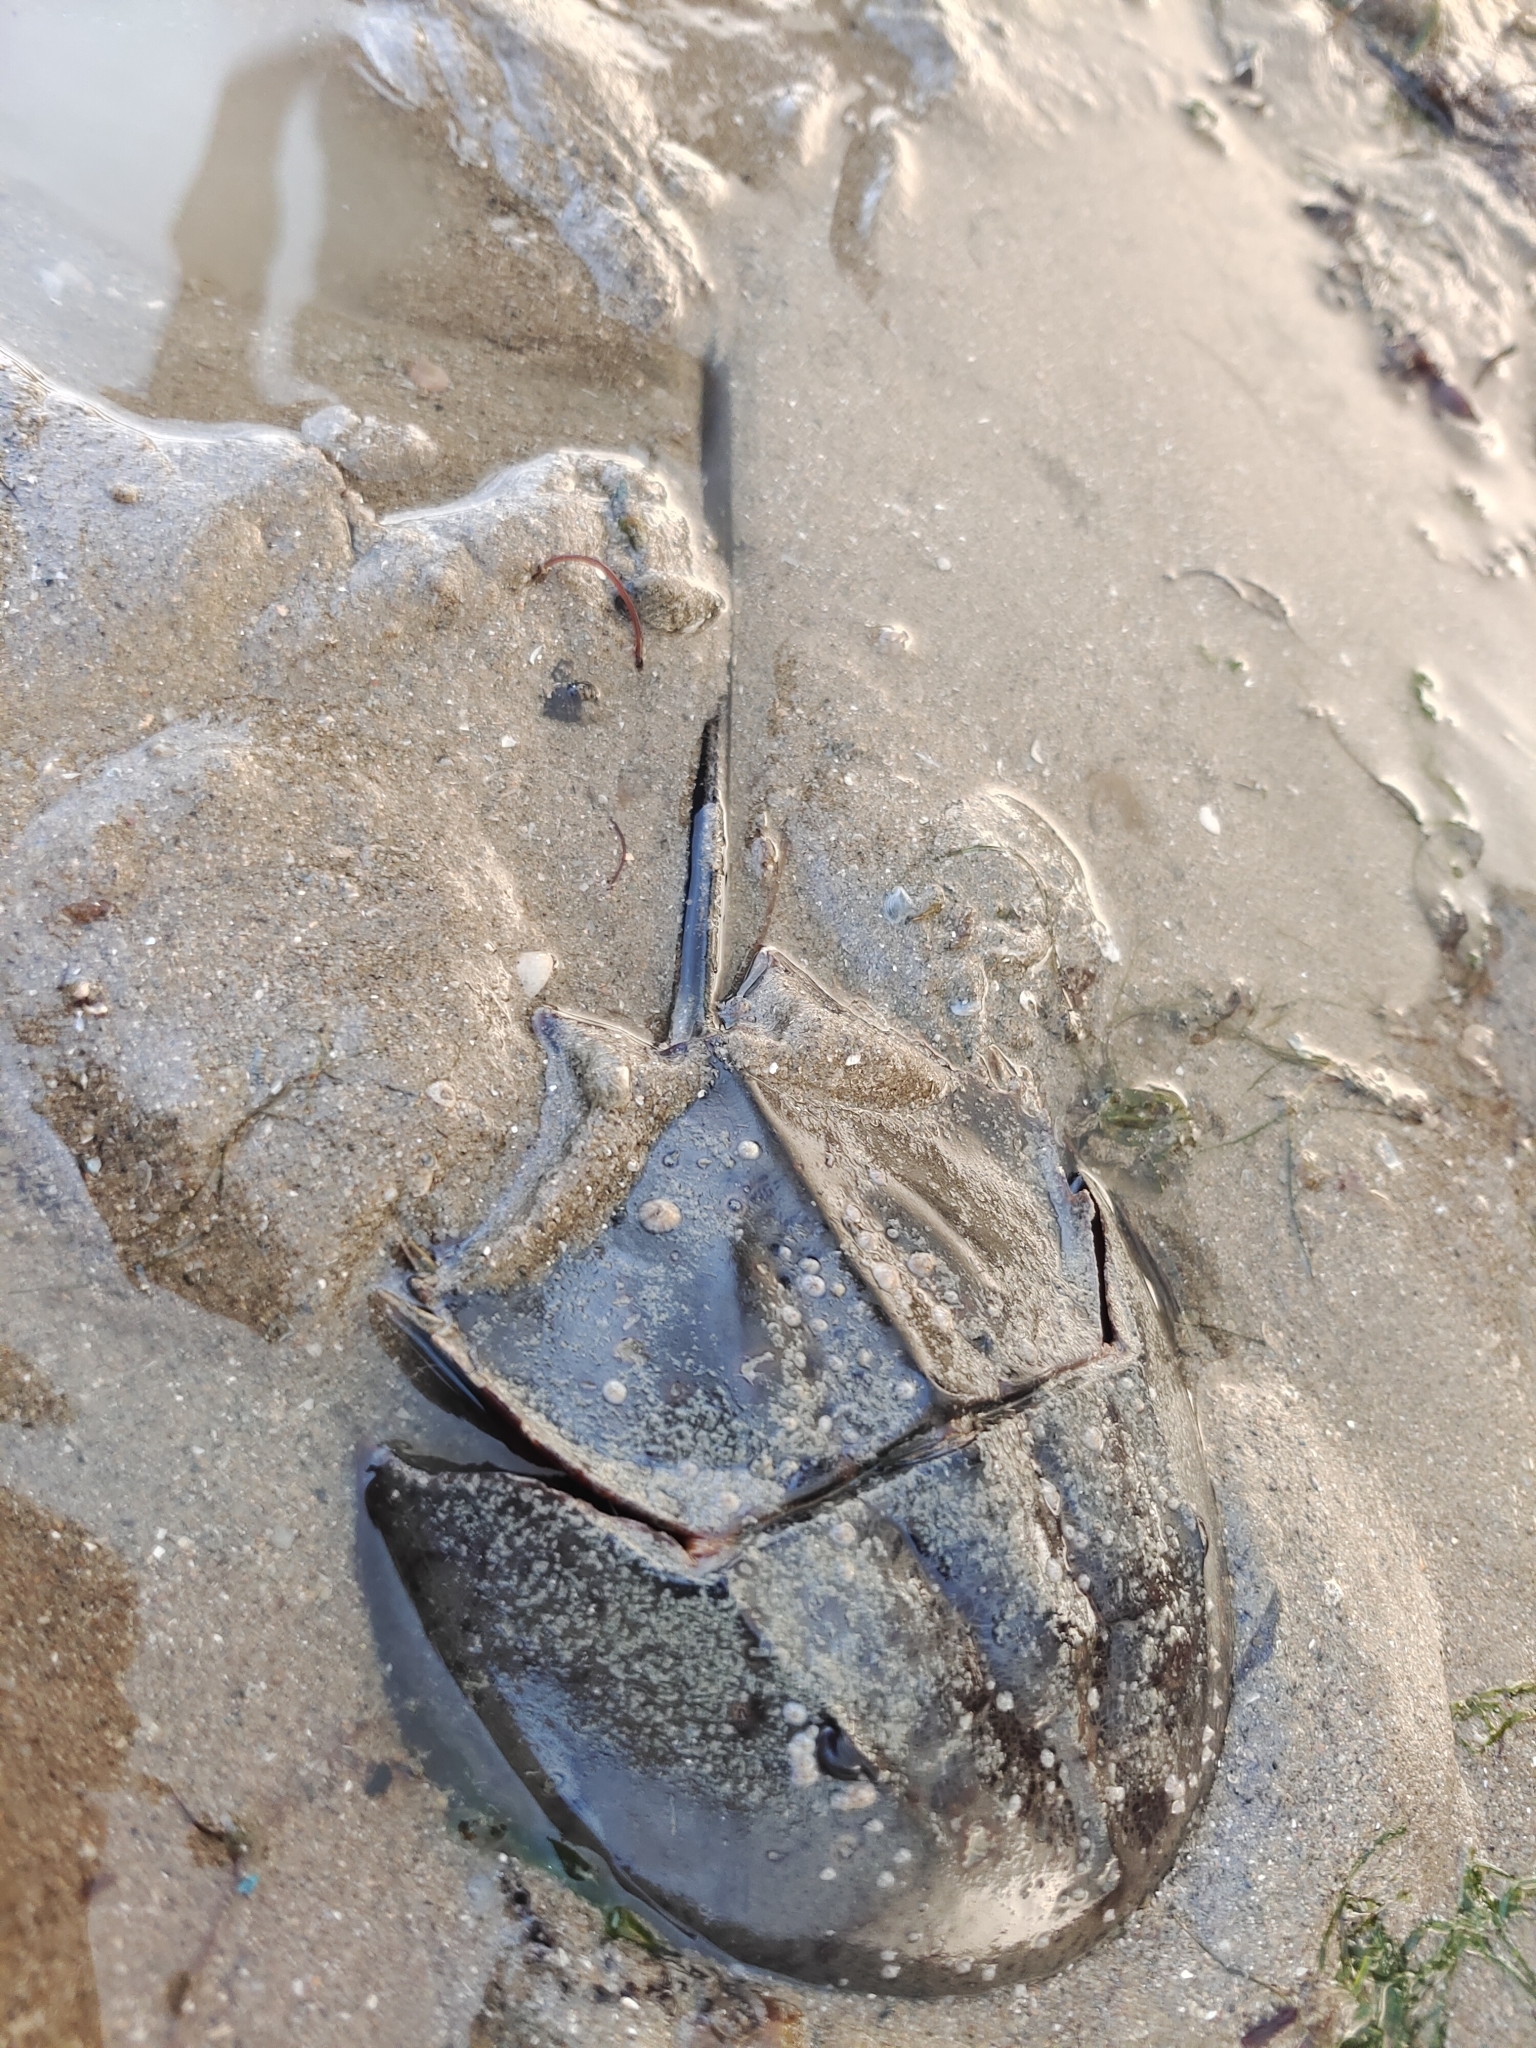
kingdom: Animalia
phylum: Arthropoda
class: Merostomata
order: Xiphosurida
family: Limulidae
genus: Carcinoscorpius
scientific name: Carcinoscorpius rotundicauda
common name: Horseshoe crab
